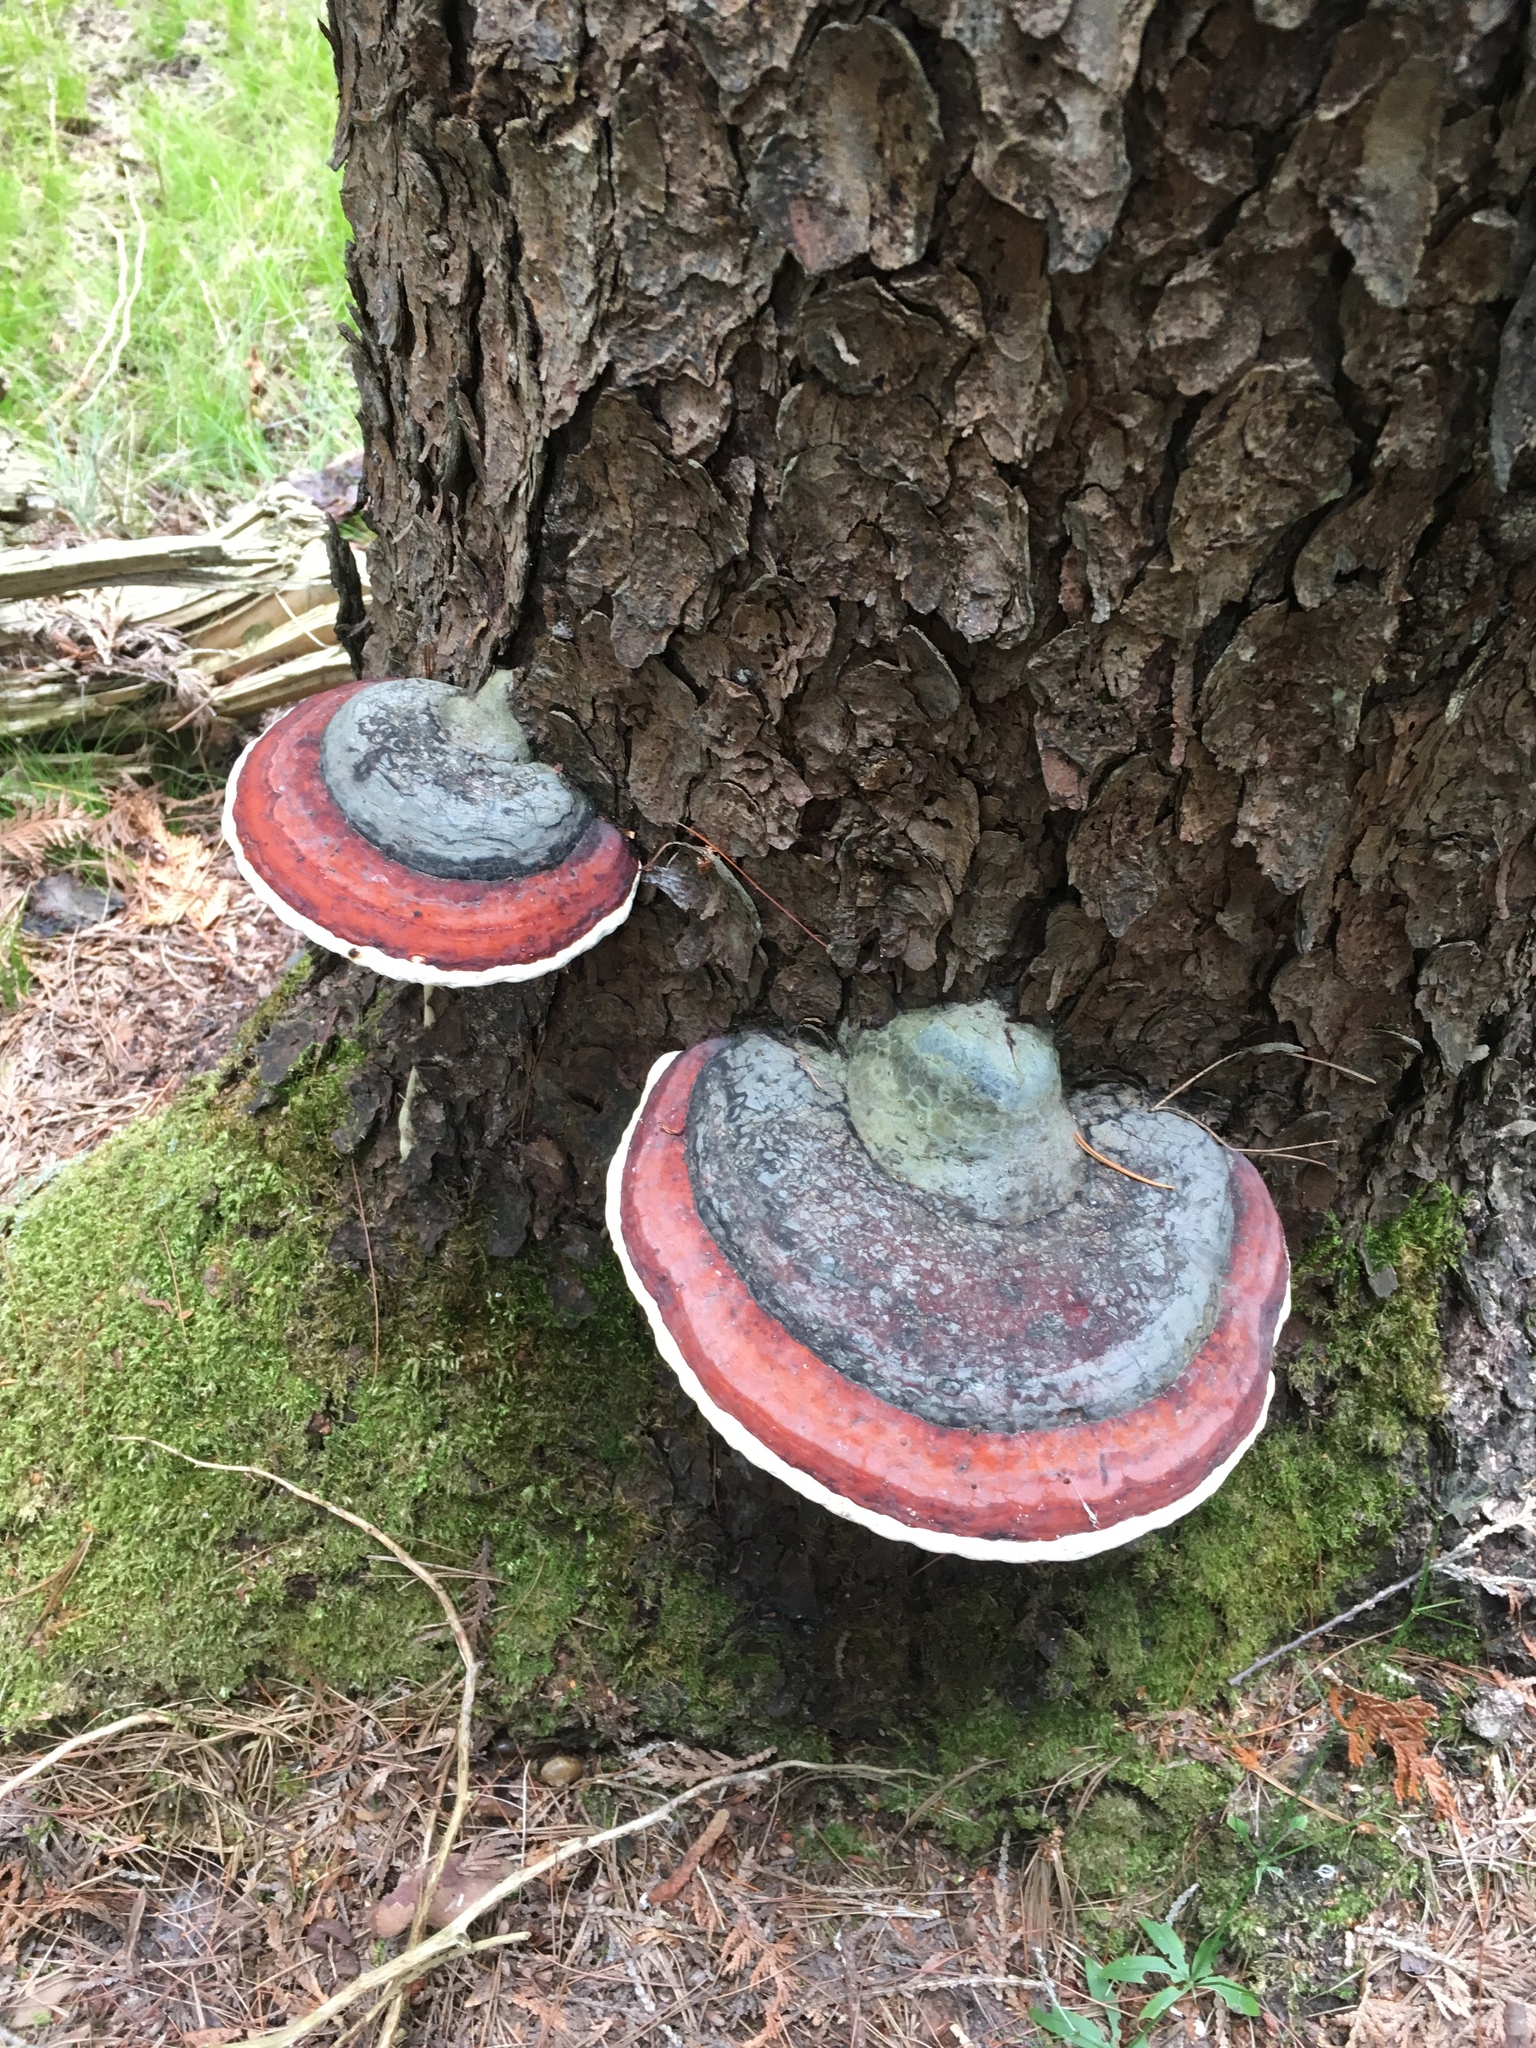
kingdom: Fungi
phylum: Basidiomycota
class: Agaricomycetes
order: Polyporales
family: Fomitopsidaceae
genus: Fomitopsis
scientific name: Fomitopsis mounceae
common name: Northern red belt
